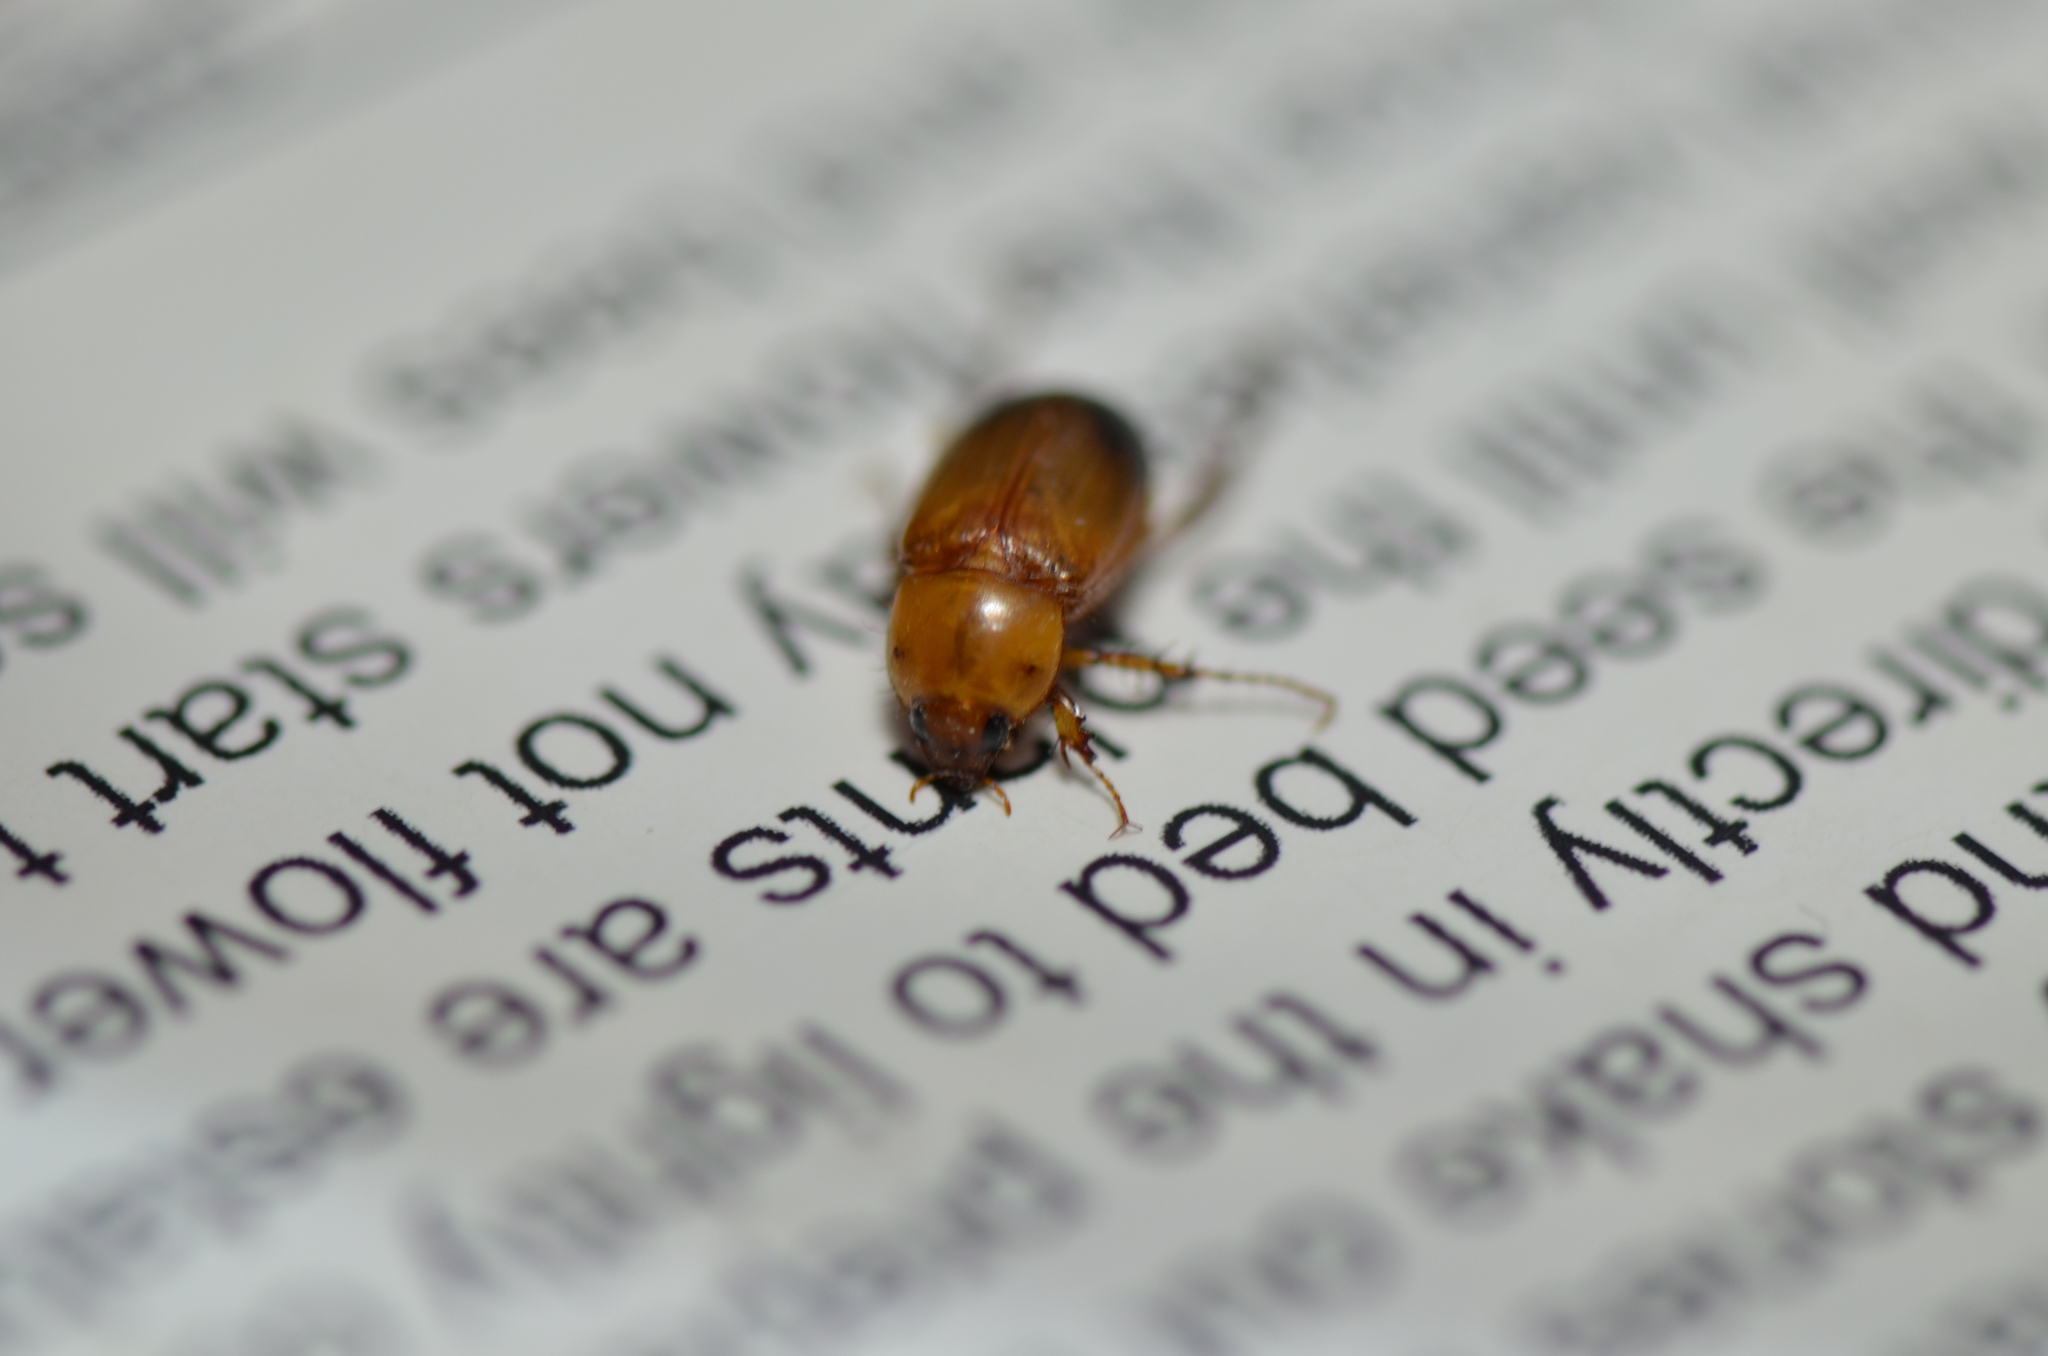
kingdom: Animalia
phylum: Arthropoda
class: Insecta
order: Coleoptera
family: Scarabaeidae
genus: Phyllotocus
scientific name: Phyllotocus macleayi
